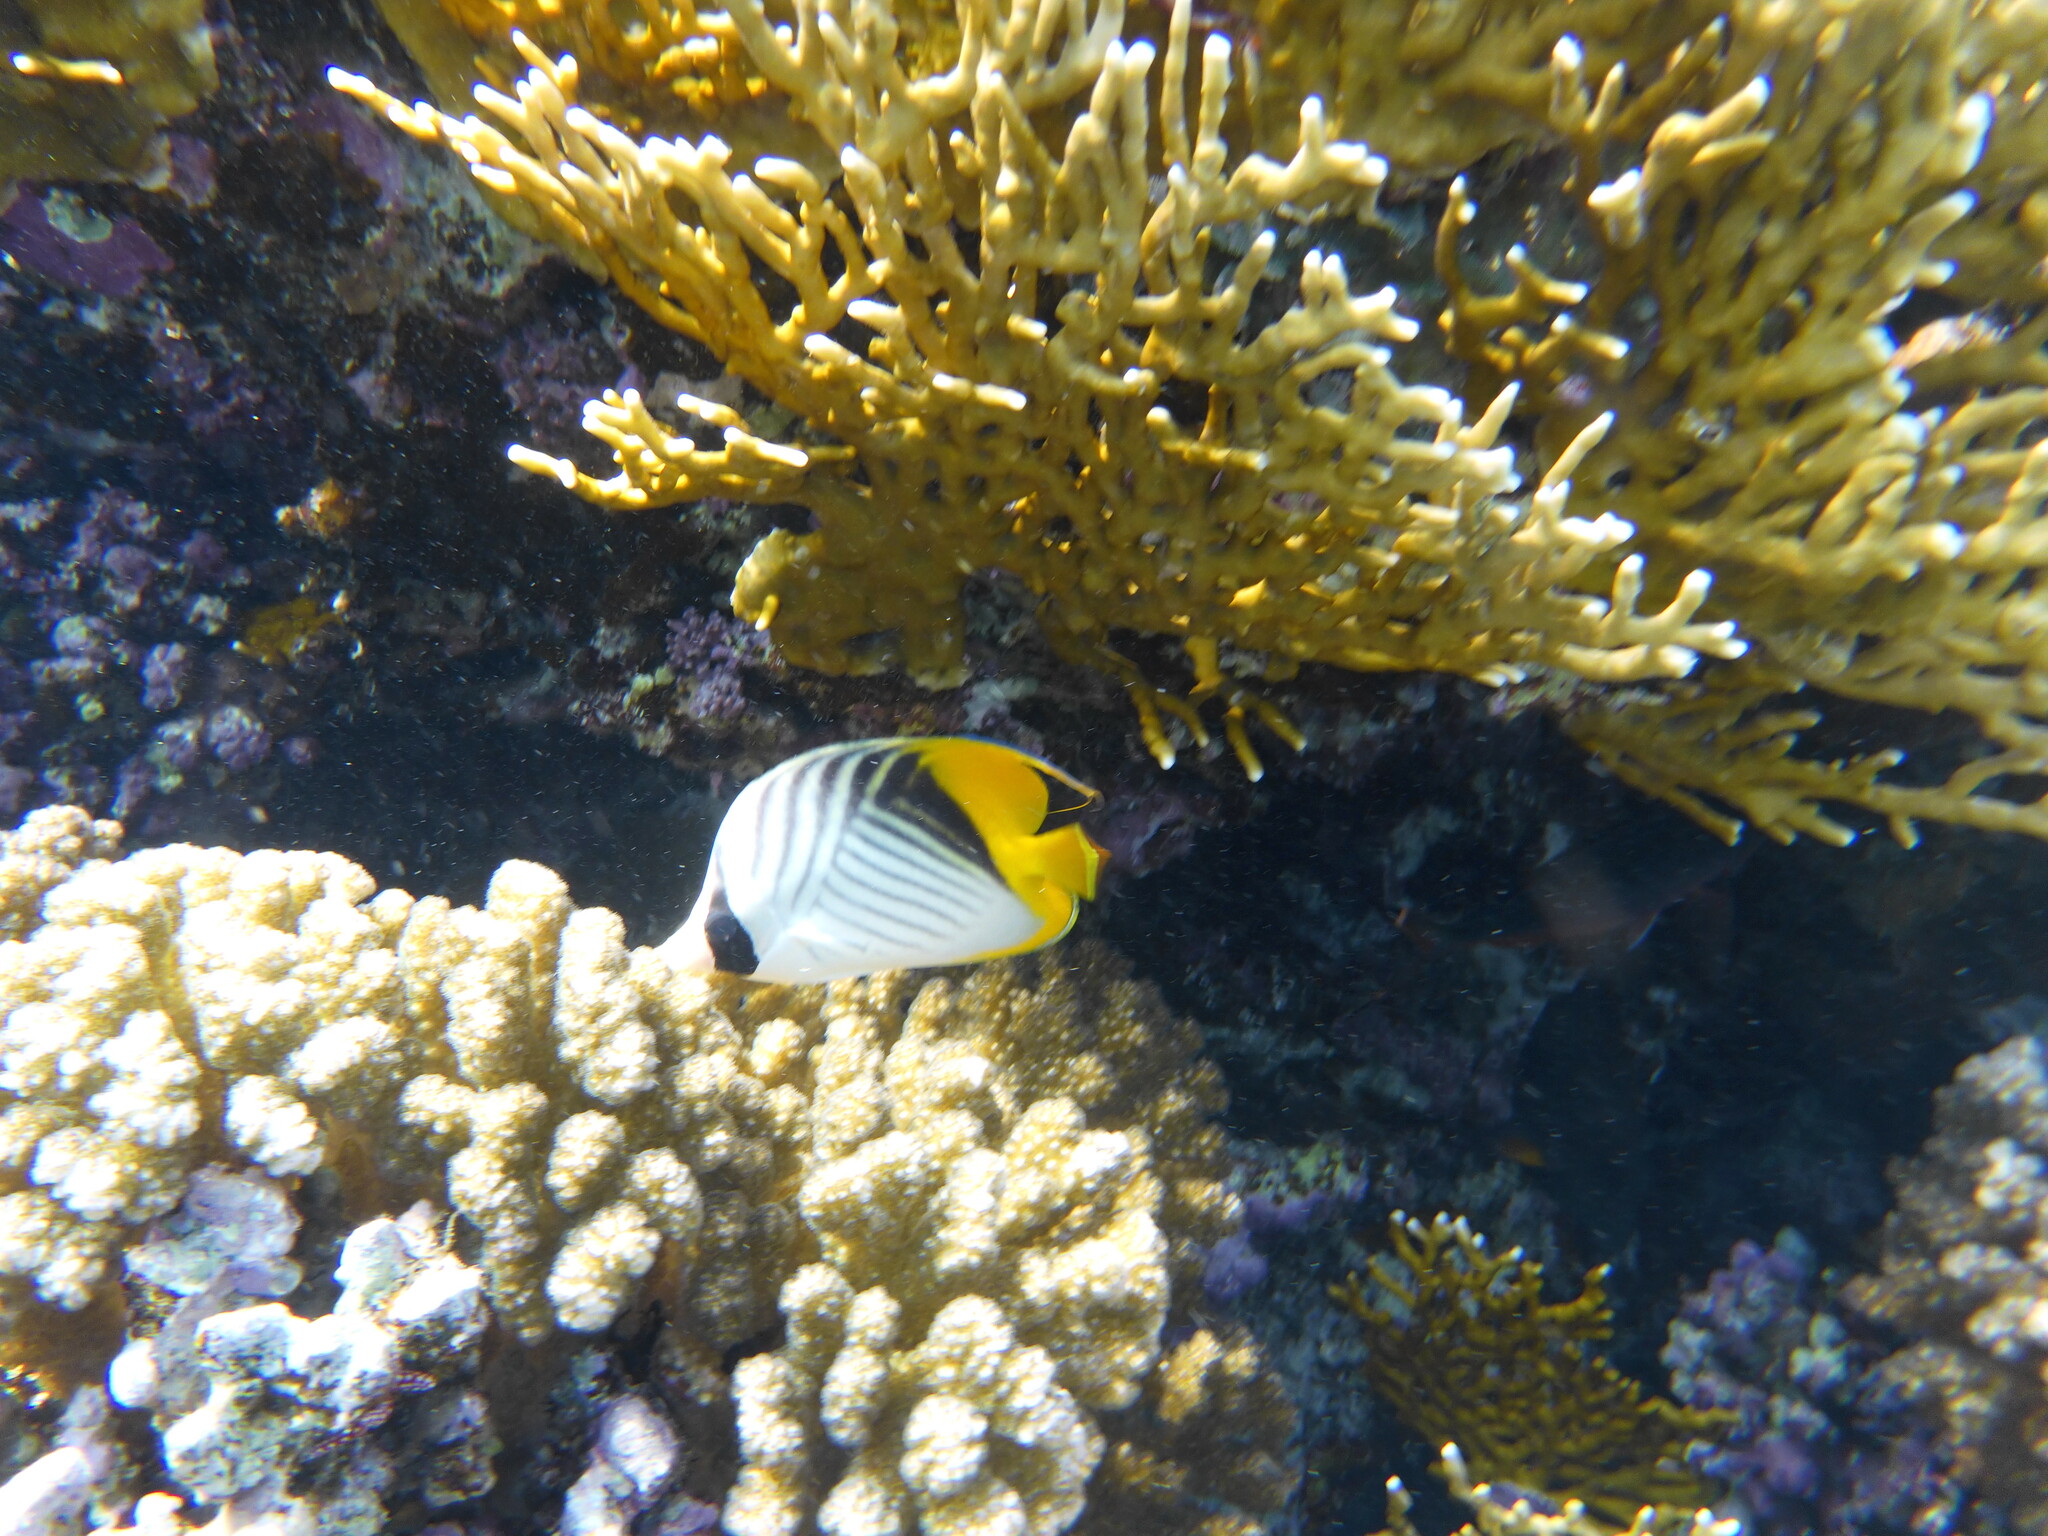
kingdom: Animalia
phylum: Chordata
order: Perciformes
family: Chaetodontidae
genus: Chaetodon
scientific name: Chaetodon auriga
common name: Threadfin butterflyfish
